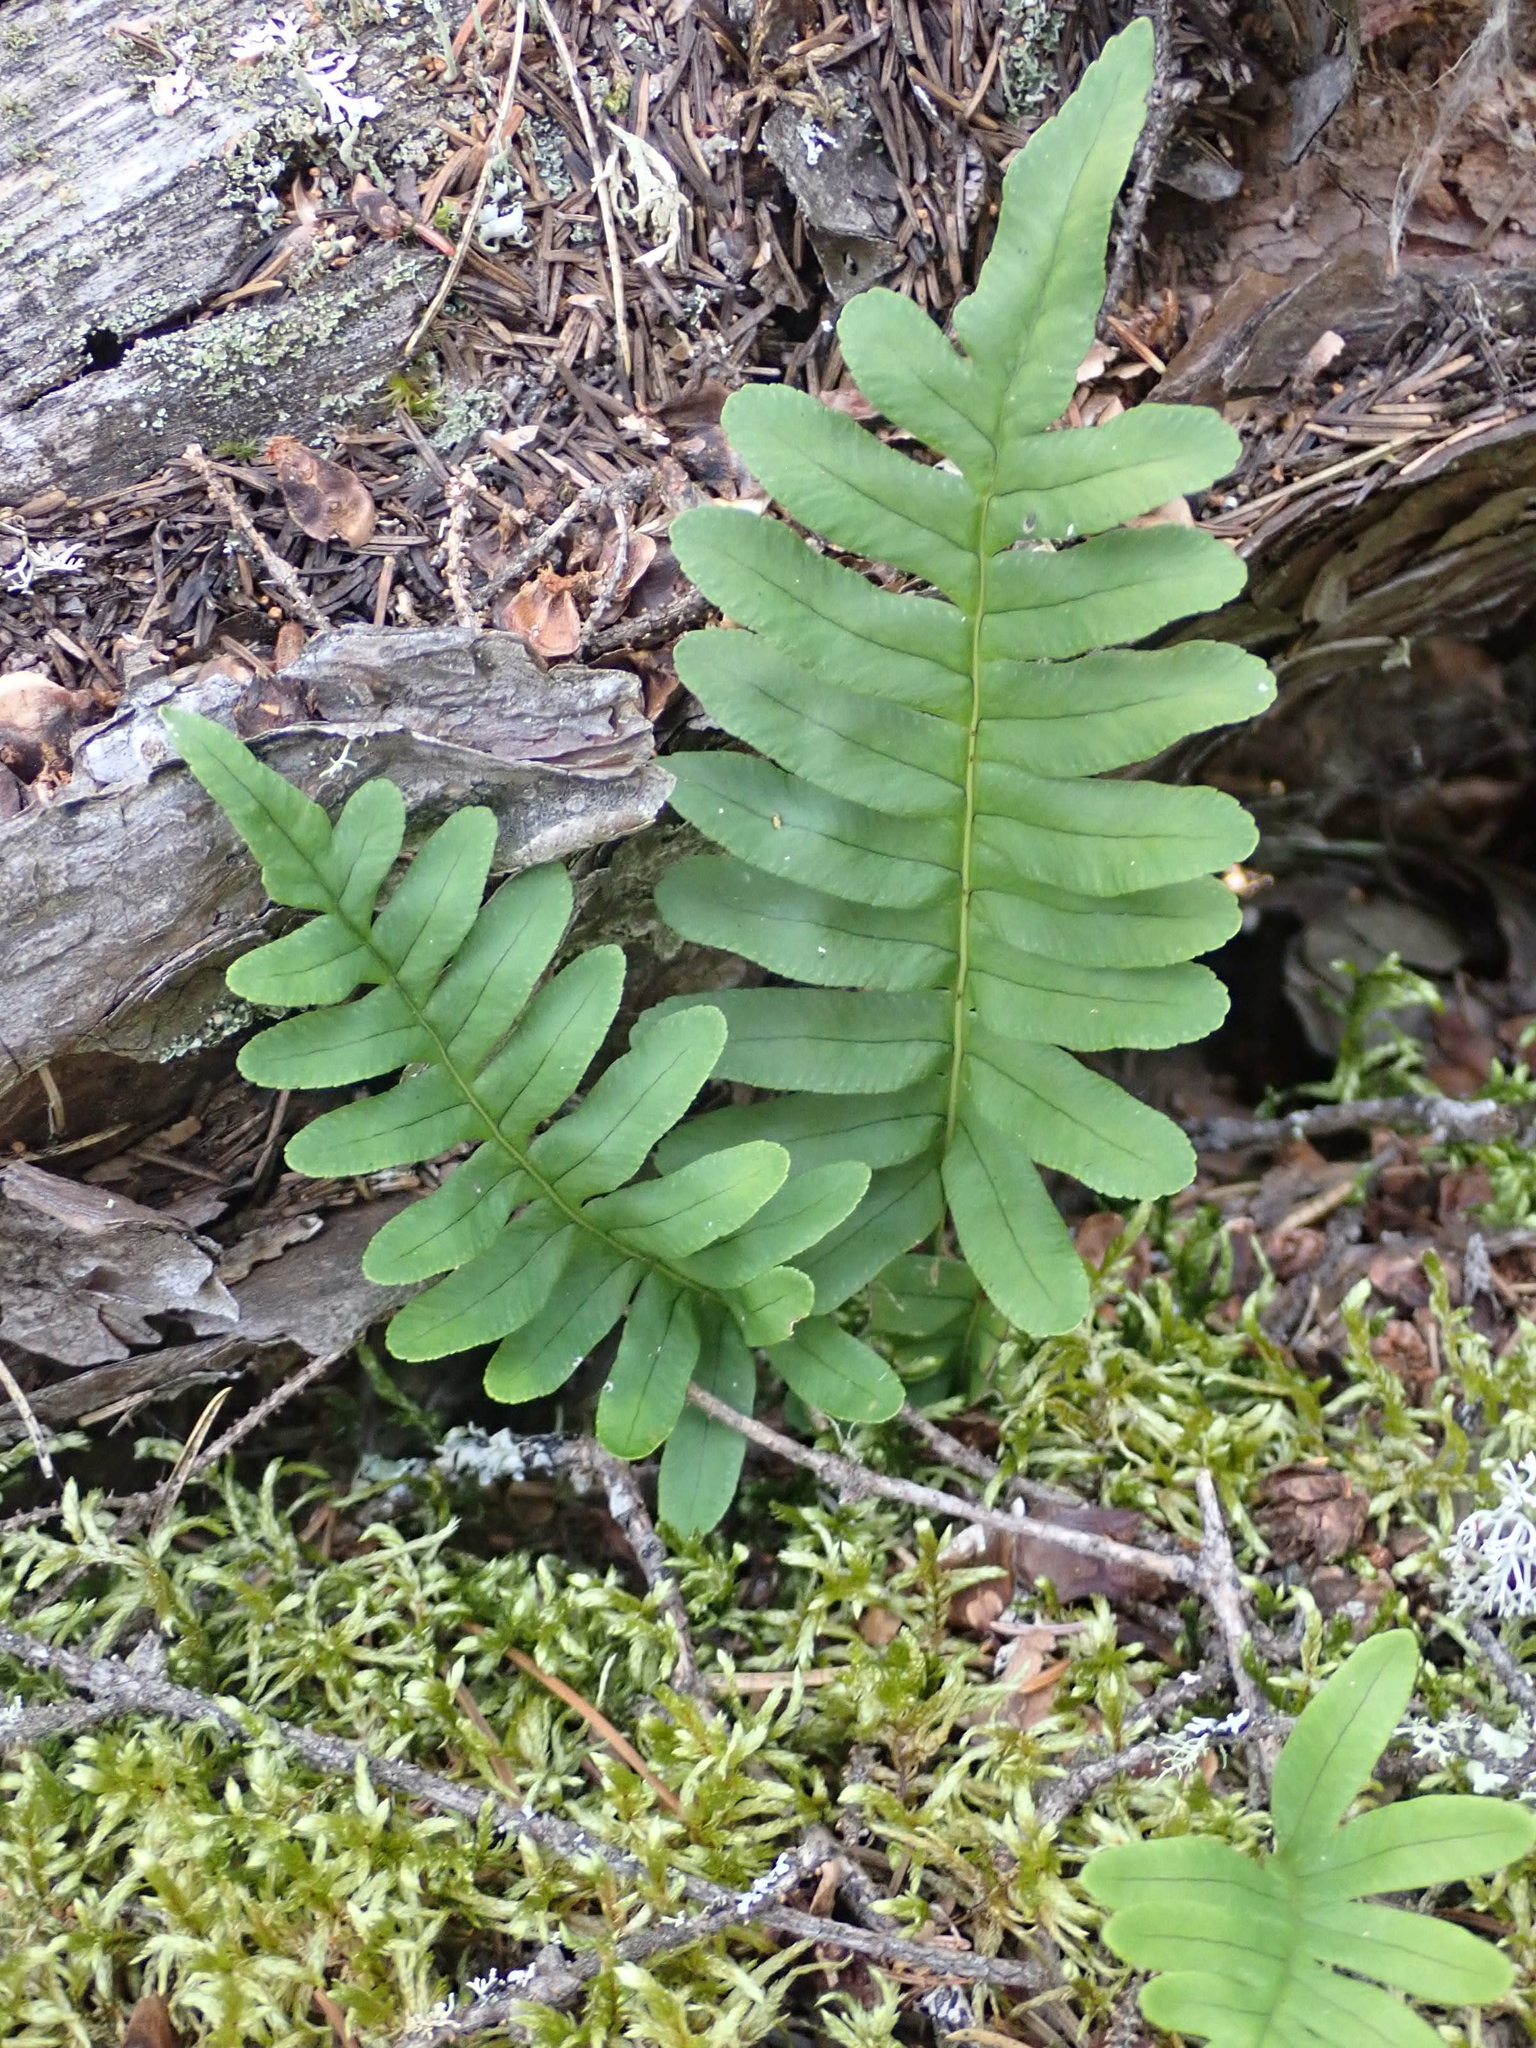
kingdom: Plantae
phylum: Tracheophyta
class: Polypodiopsida
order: Polypodiales
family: Polypodiaceae
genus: Polypodium
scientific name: Polypodium virginianum
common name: American wall fern
